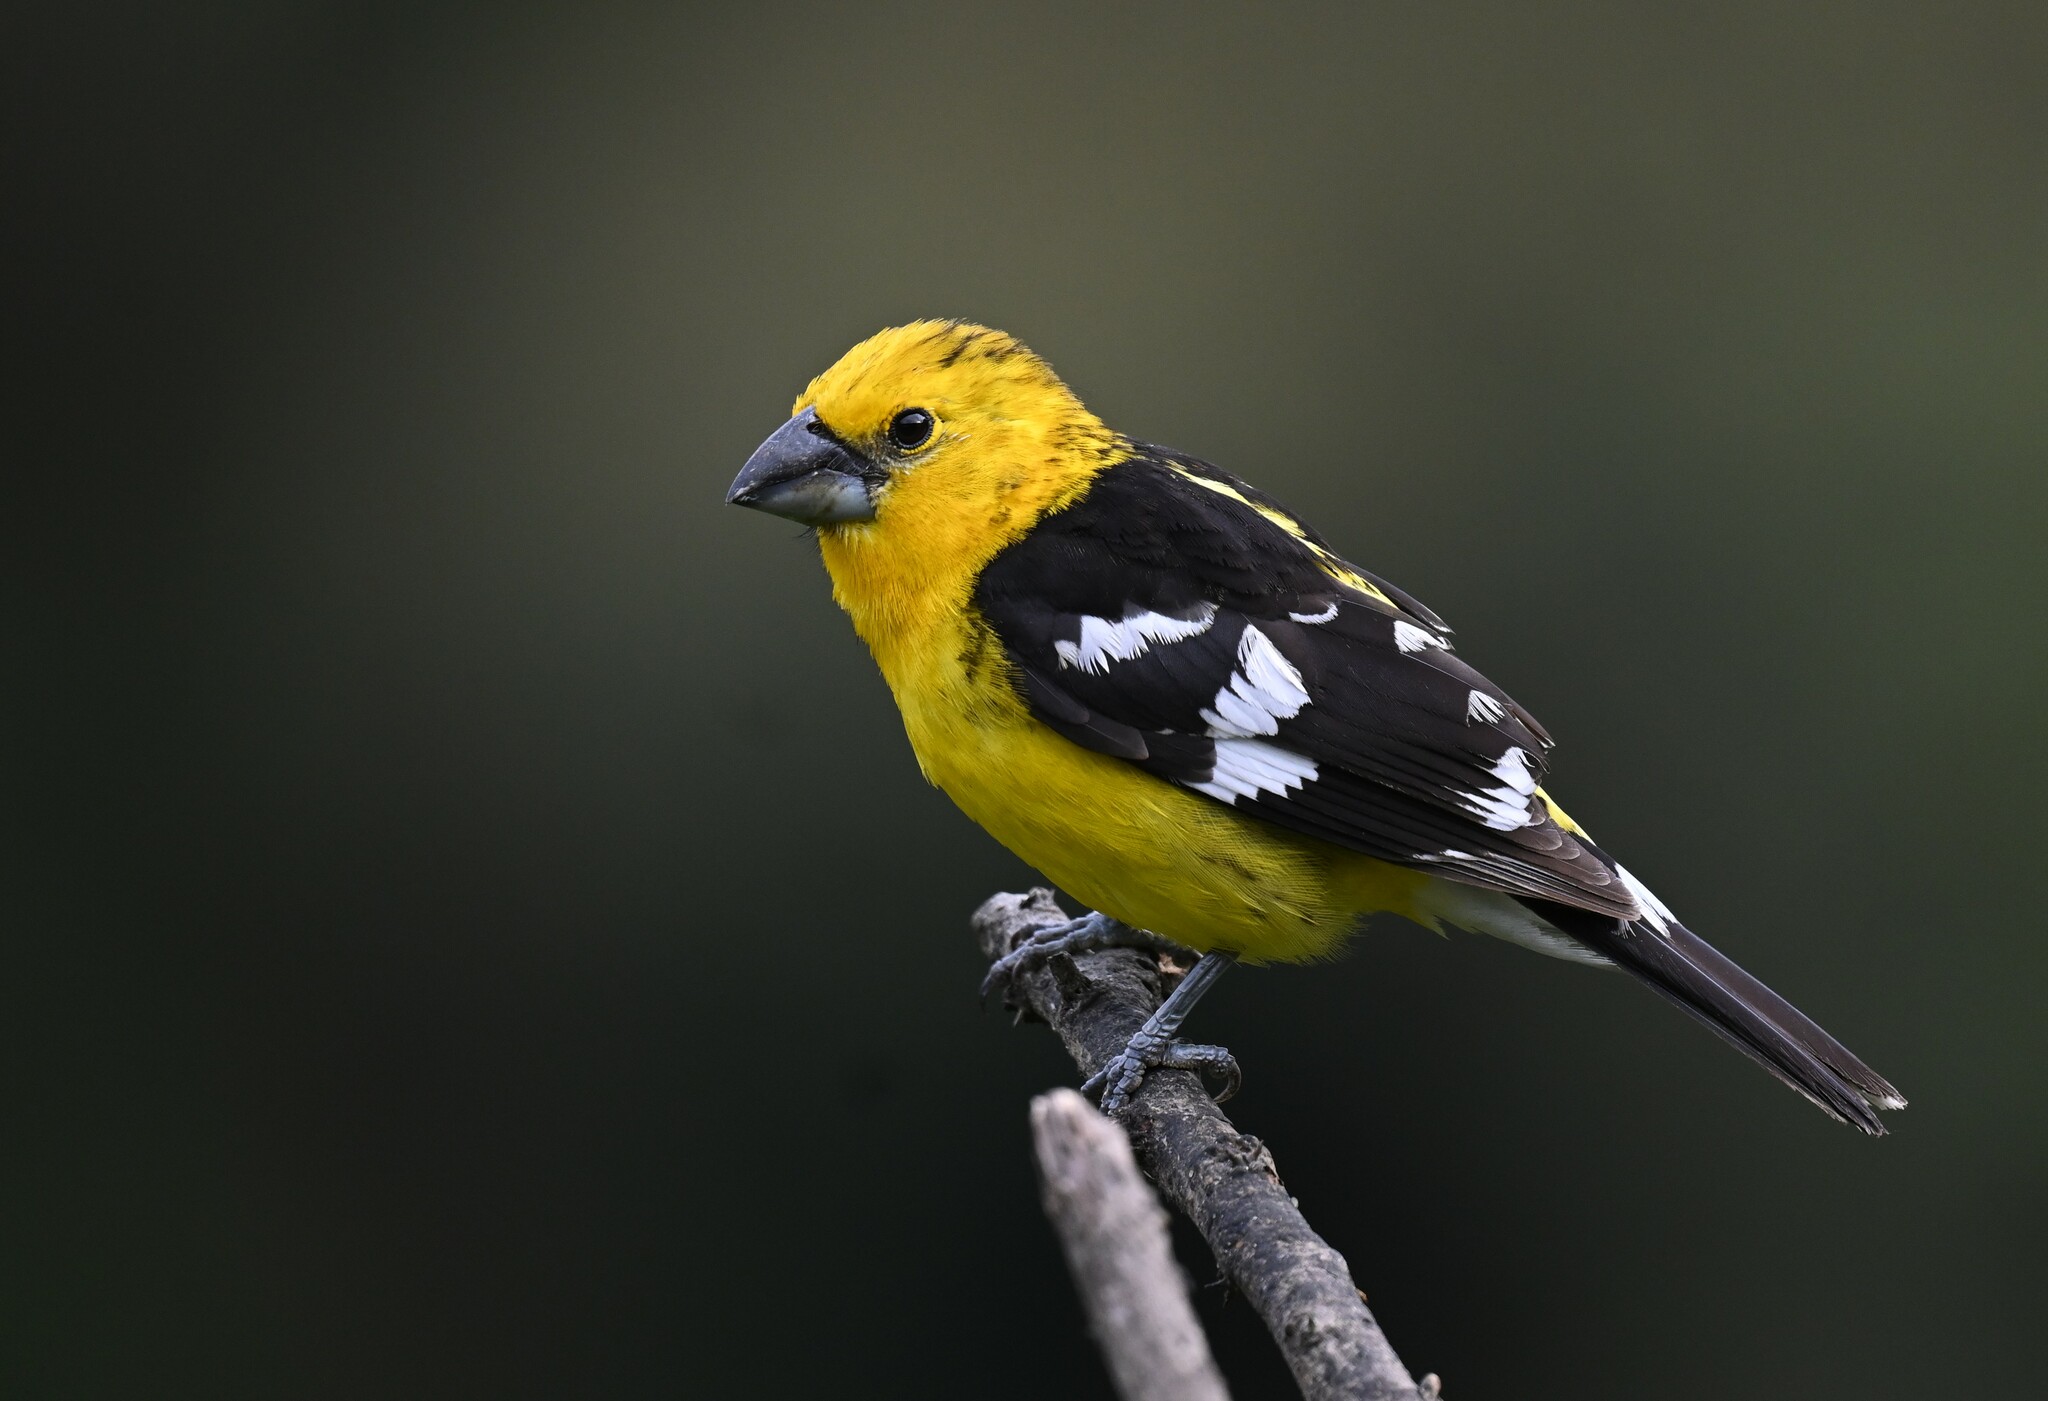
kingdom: Animalia
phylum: Chordata
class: Aves
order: Passeriformes
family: Cardinalidae
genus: Pheucticus
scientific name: Pheucticus chrysogaster
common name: Golden grosbeak
